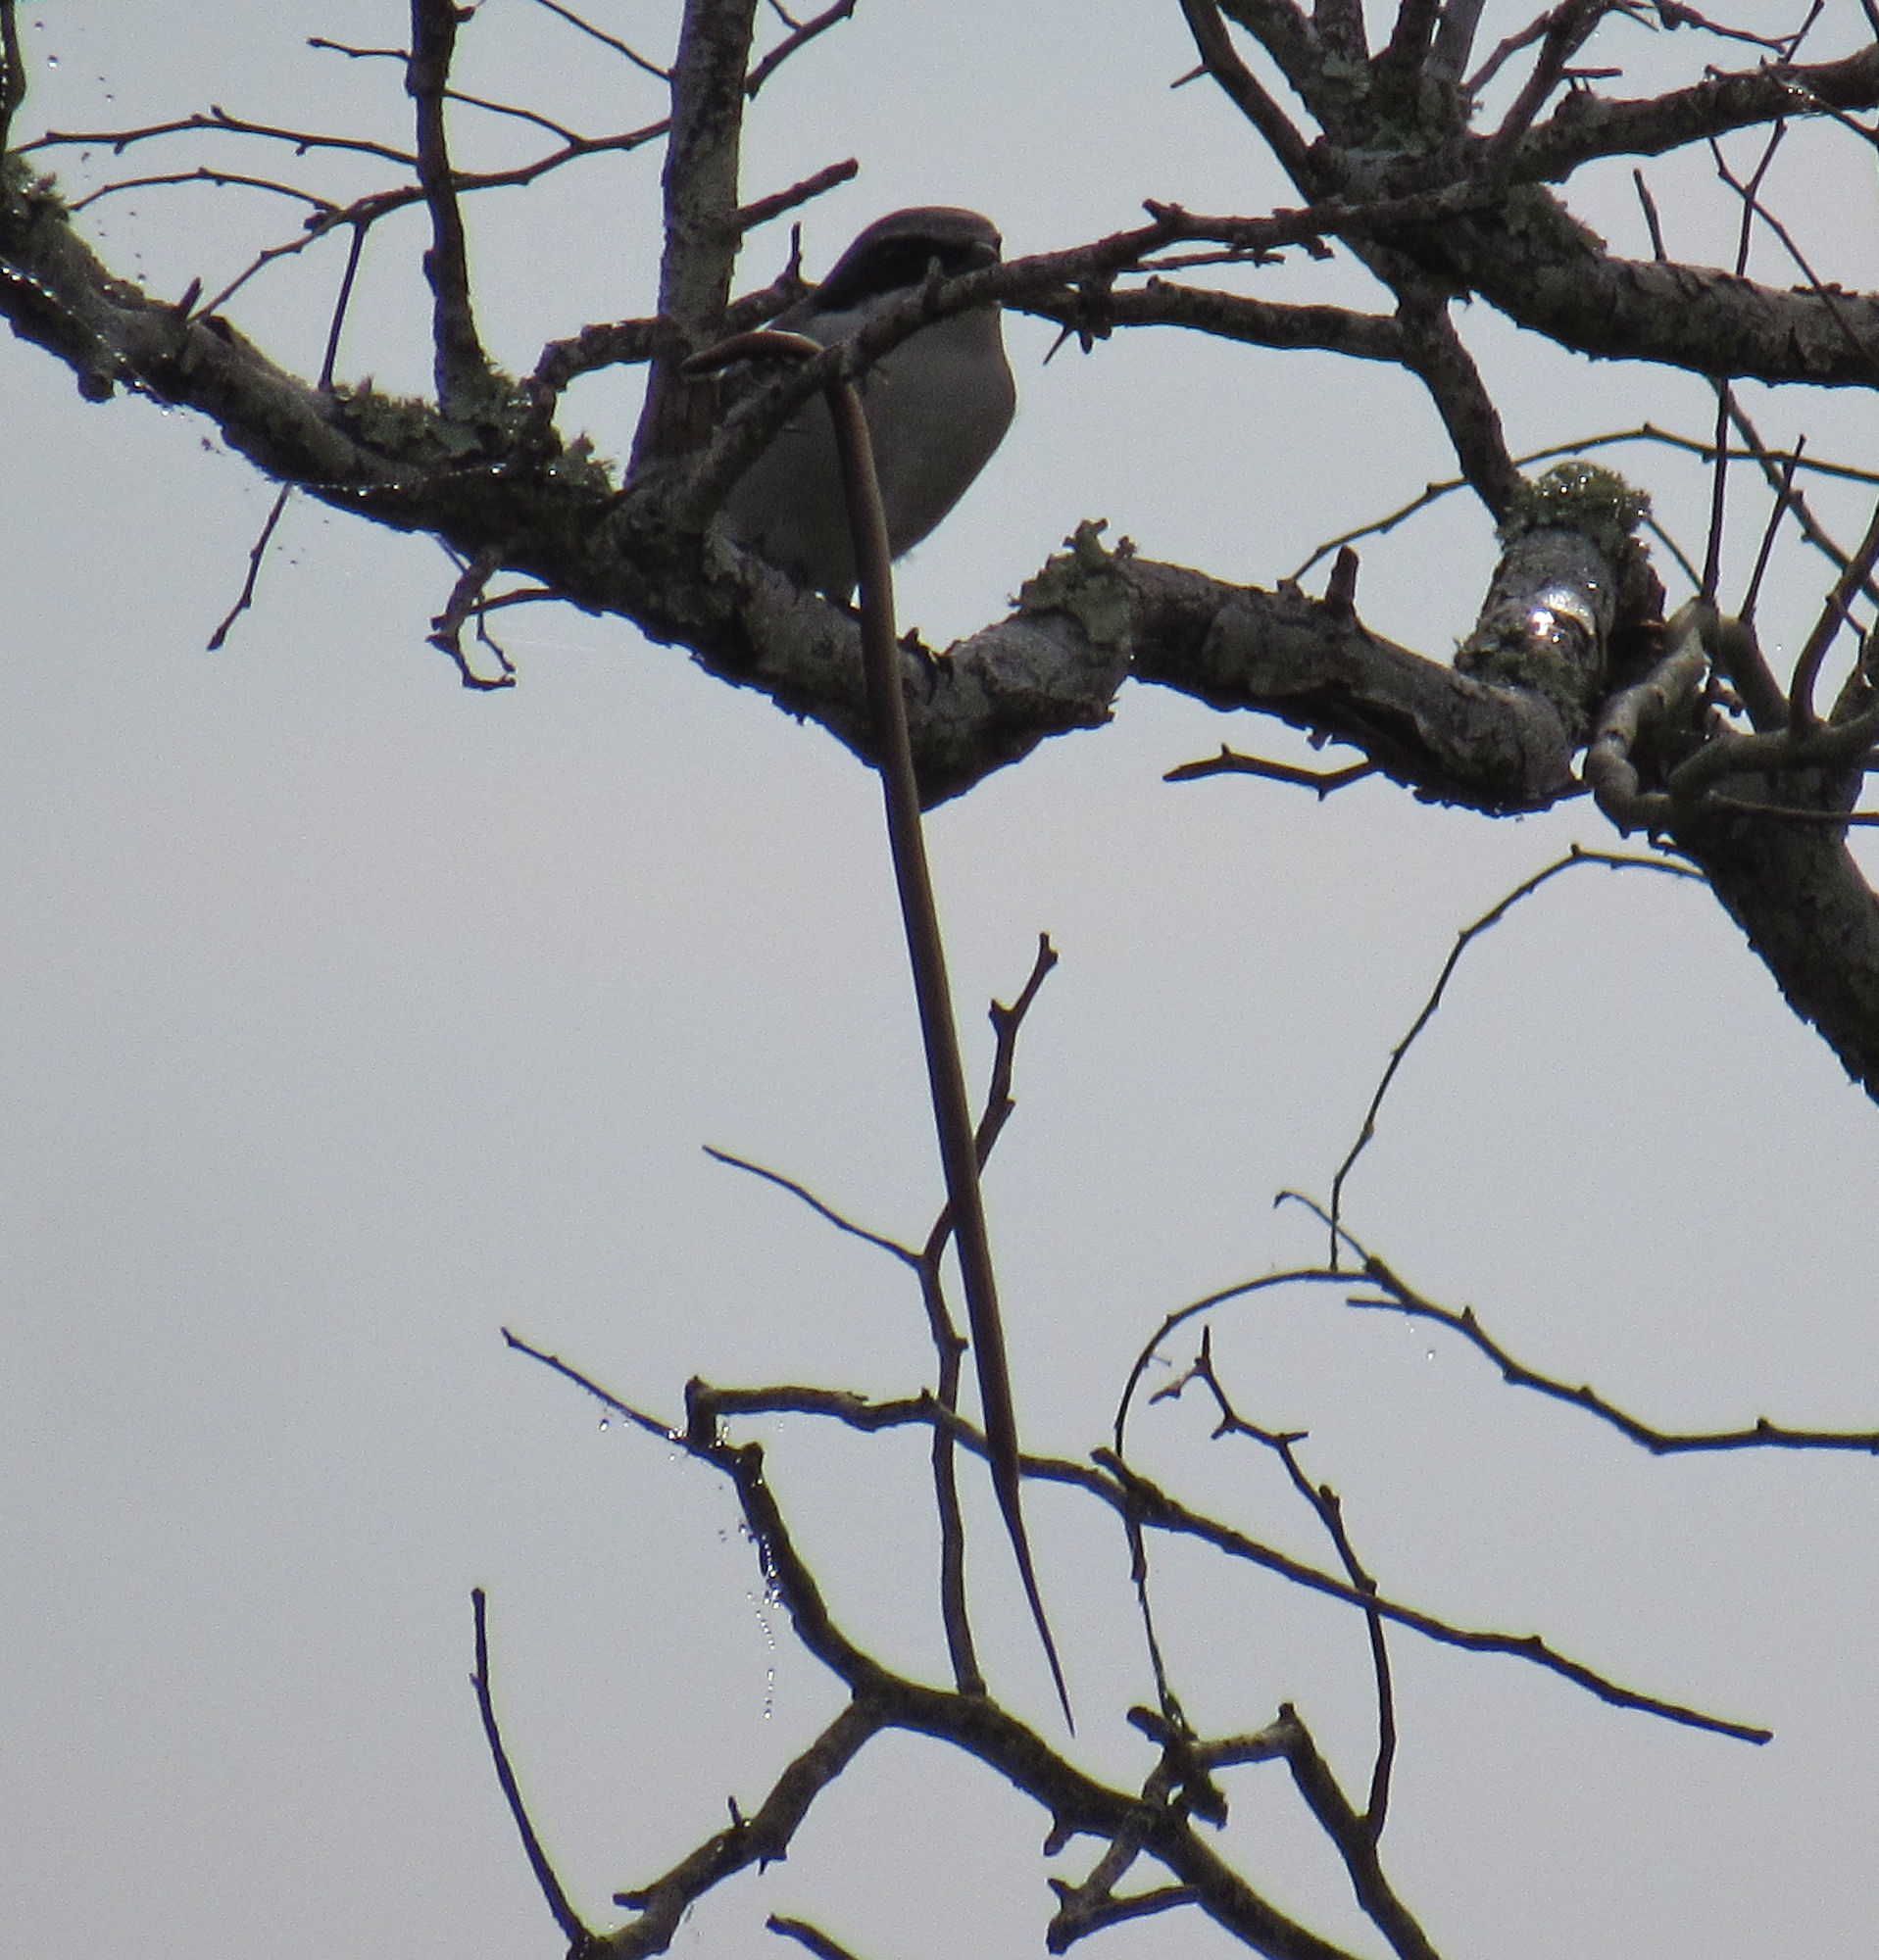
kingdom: Animalia
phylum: Chordata
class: Squamata
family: Colubridae
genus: Haldea
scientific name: Haldea striatula
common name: Rough earth snake
